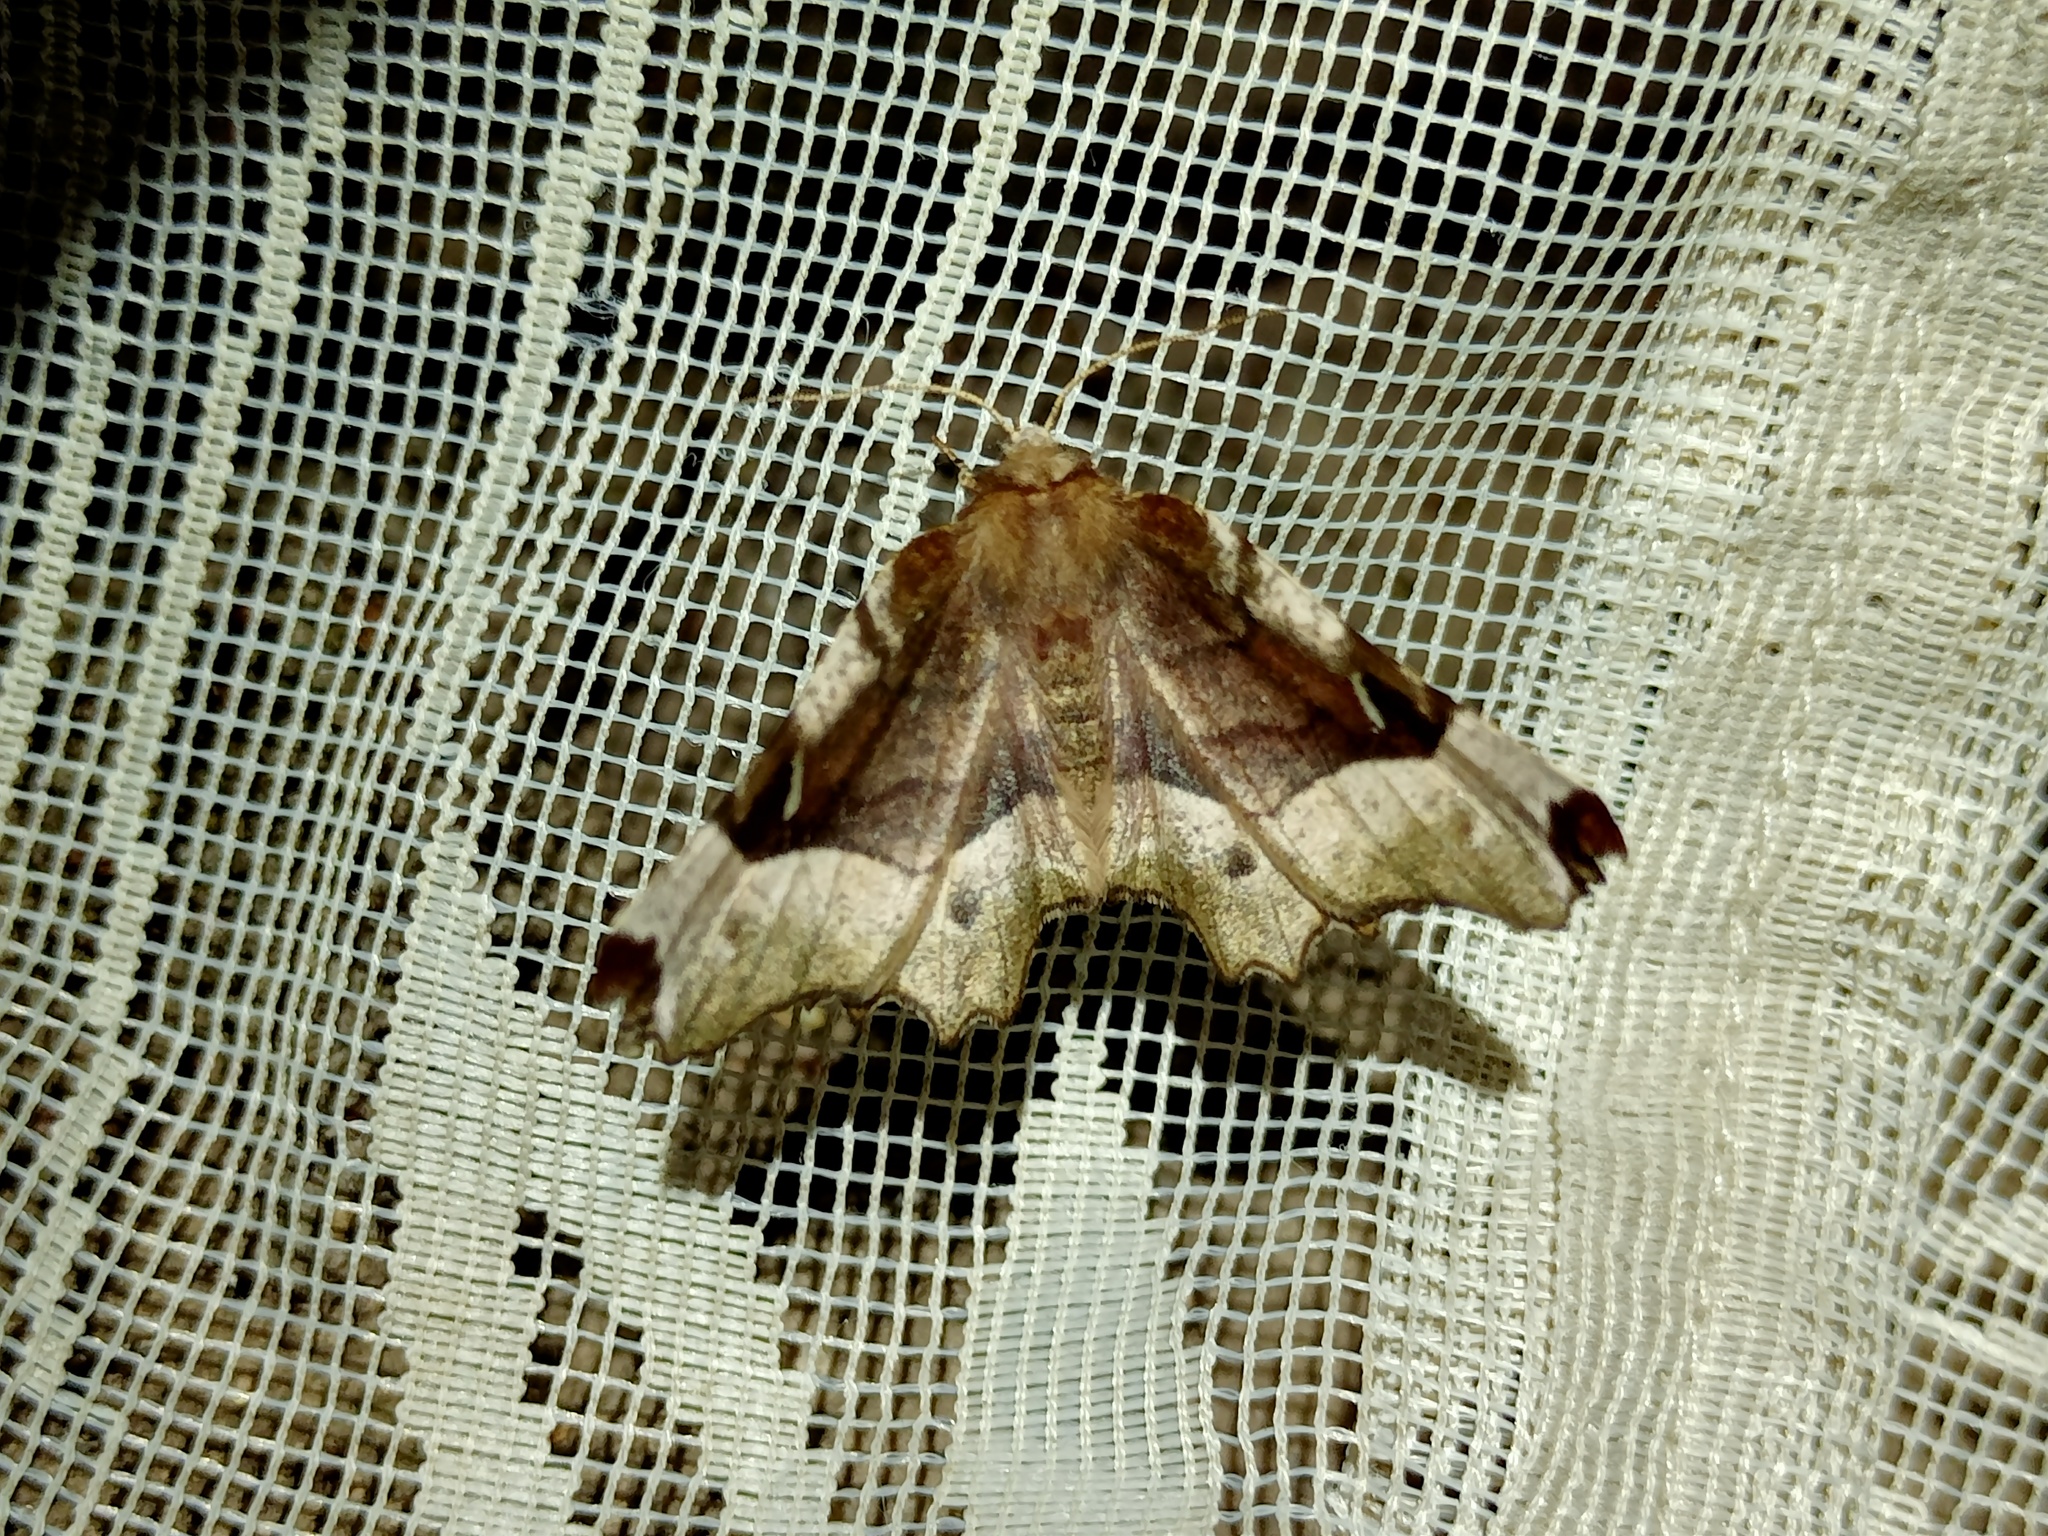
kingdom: Animalia
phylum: Arthropoda
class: Insecta
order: Lepidoptera
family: Geometridae
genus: Selenia
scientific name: Selenia tetralunaria
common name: Purple thorn
